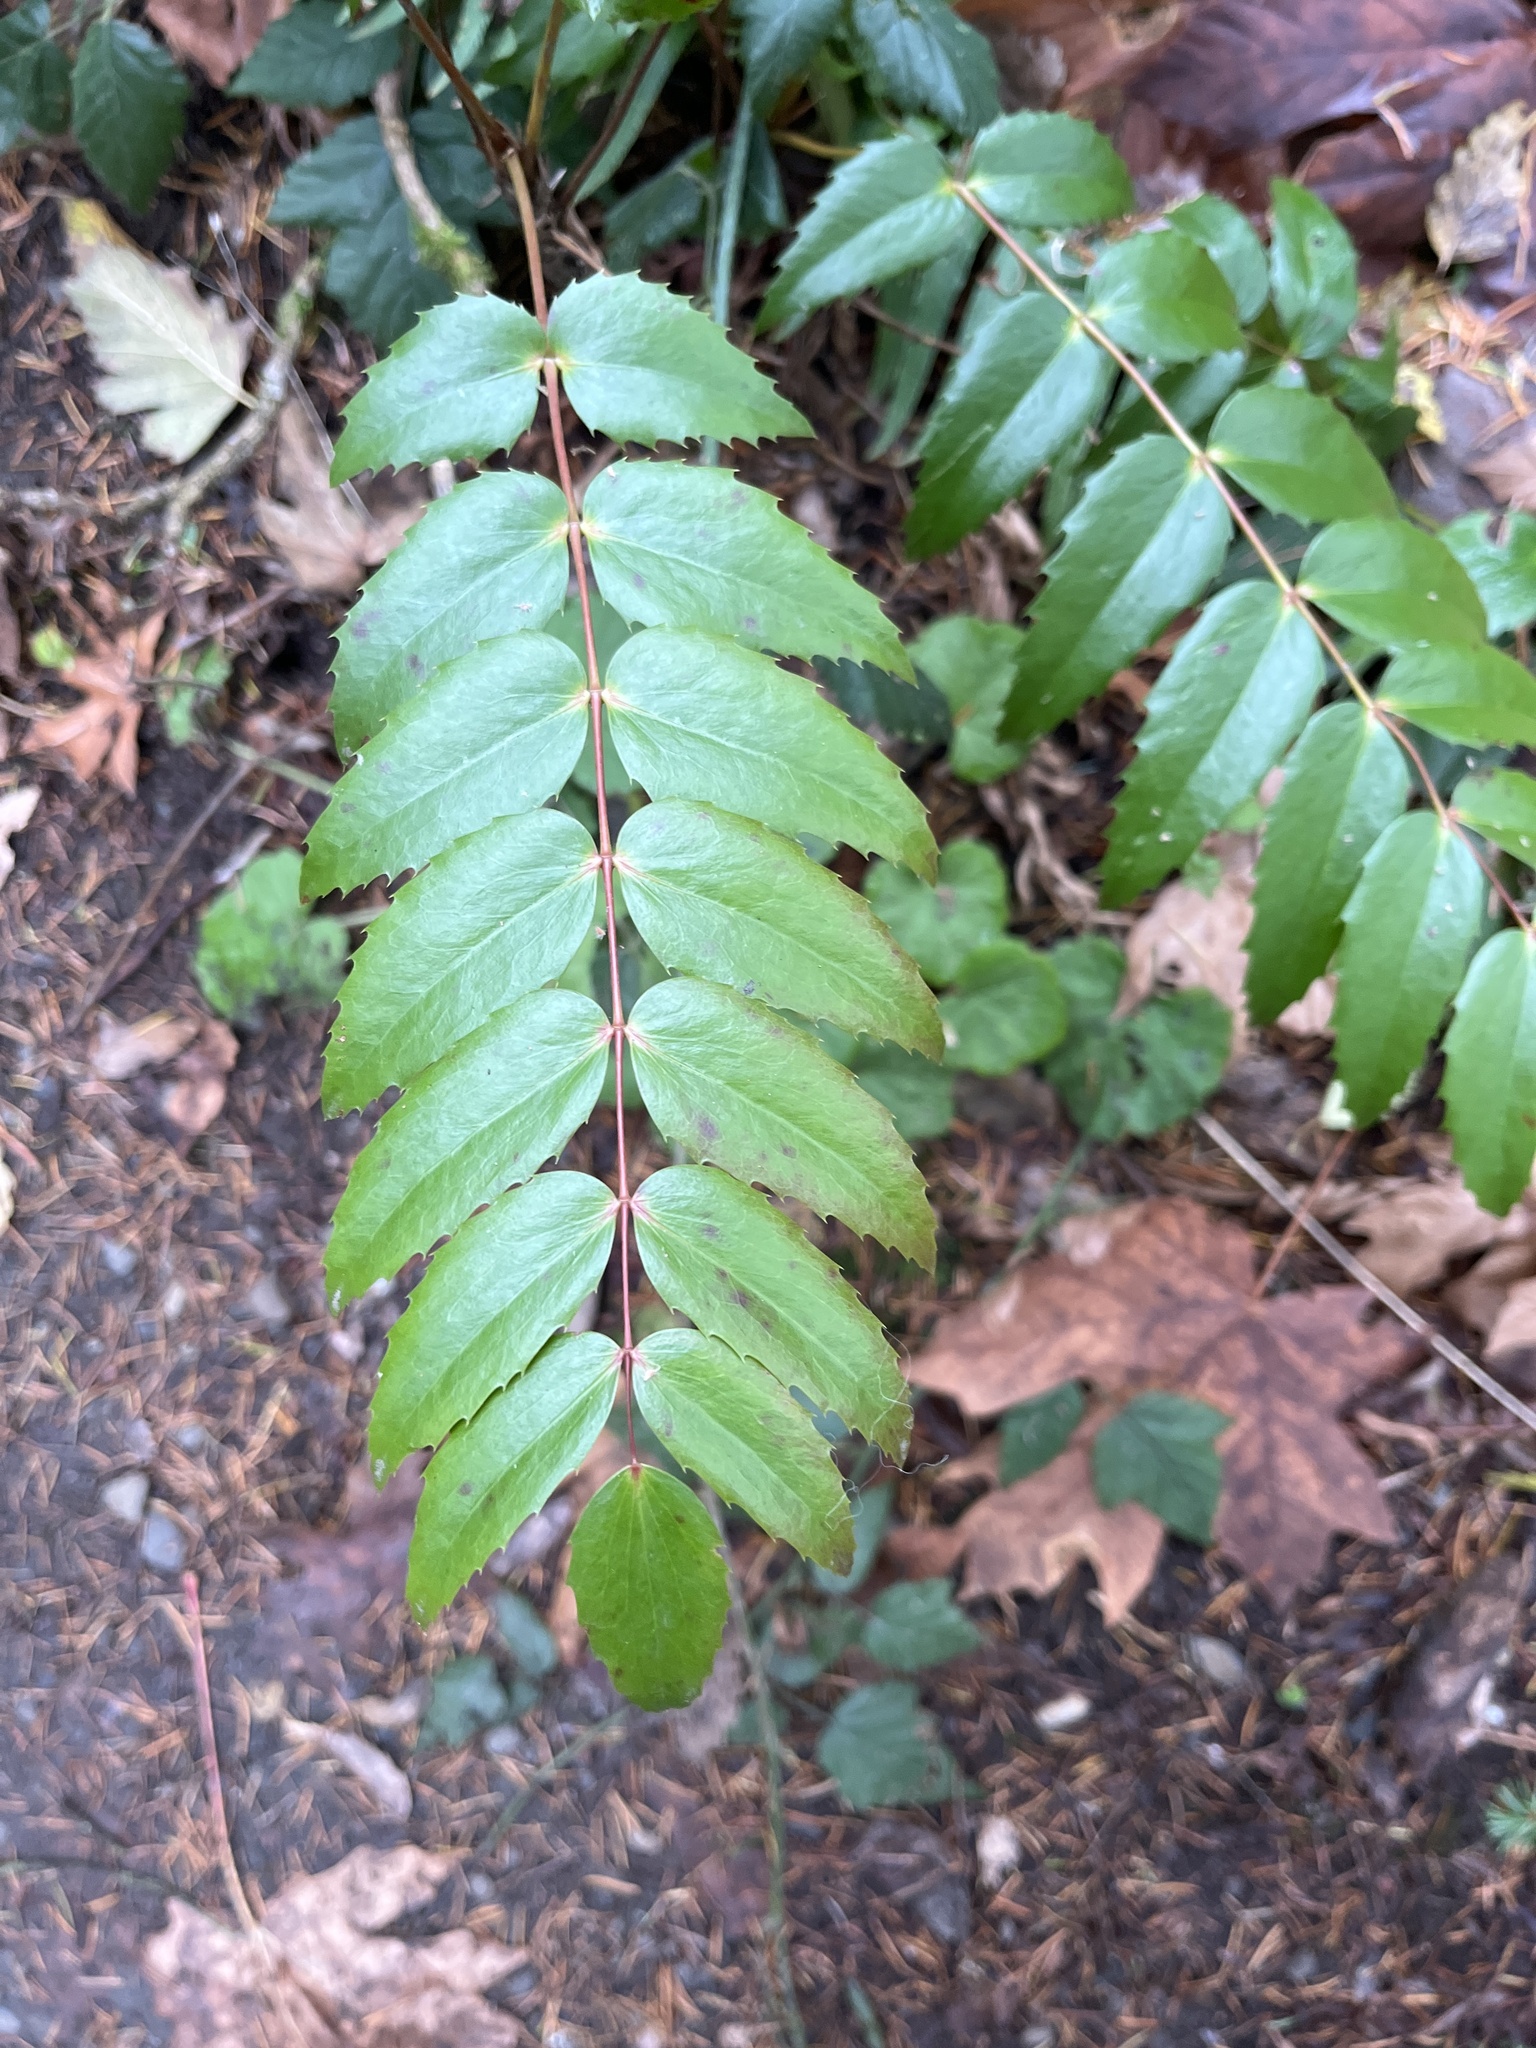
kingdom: Plantae
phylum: Tracheophyta
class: Magnoliopsida
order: Ranunculales
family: Berberidaceae
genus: Mahonia
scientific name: Mahonia nervosa
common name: Cascade oregon-grape
